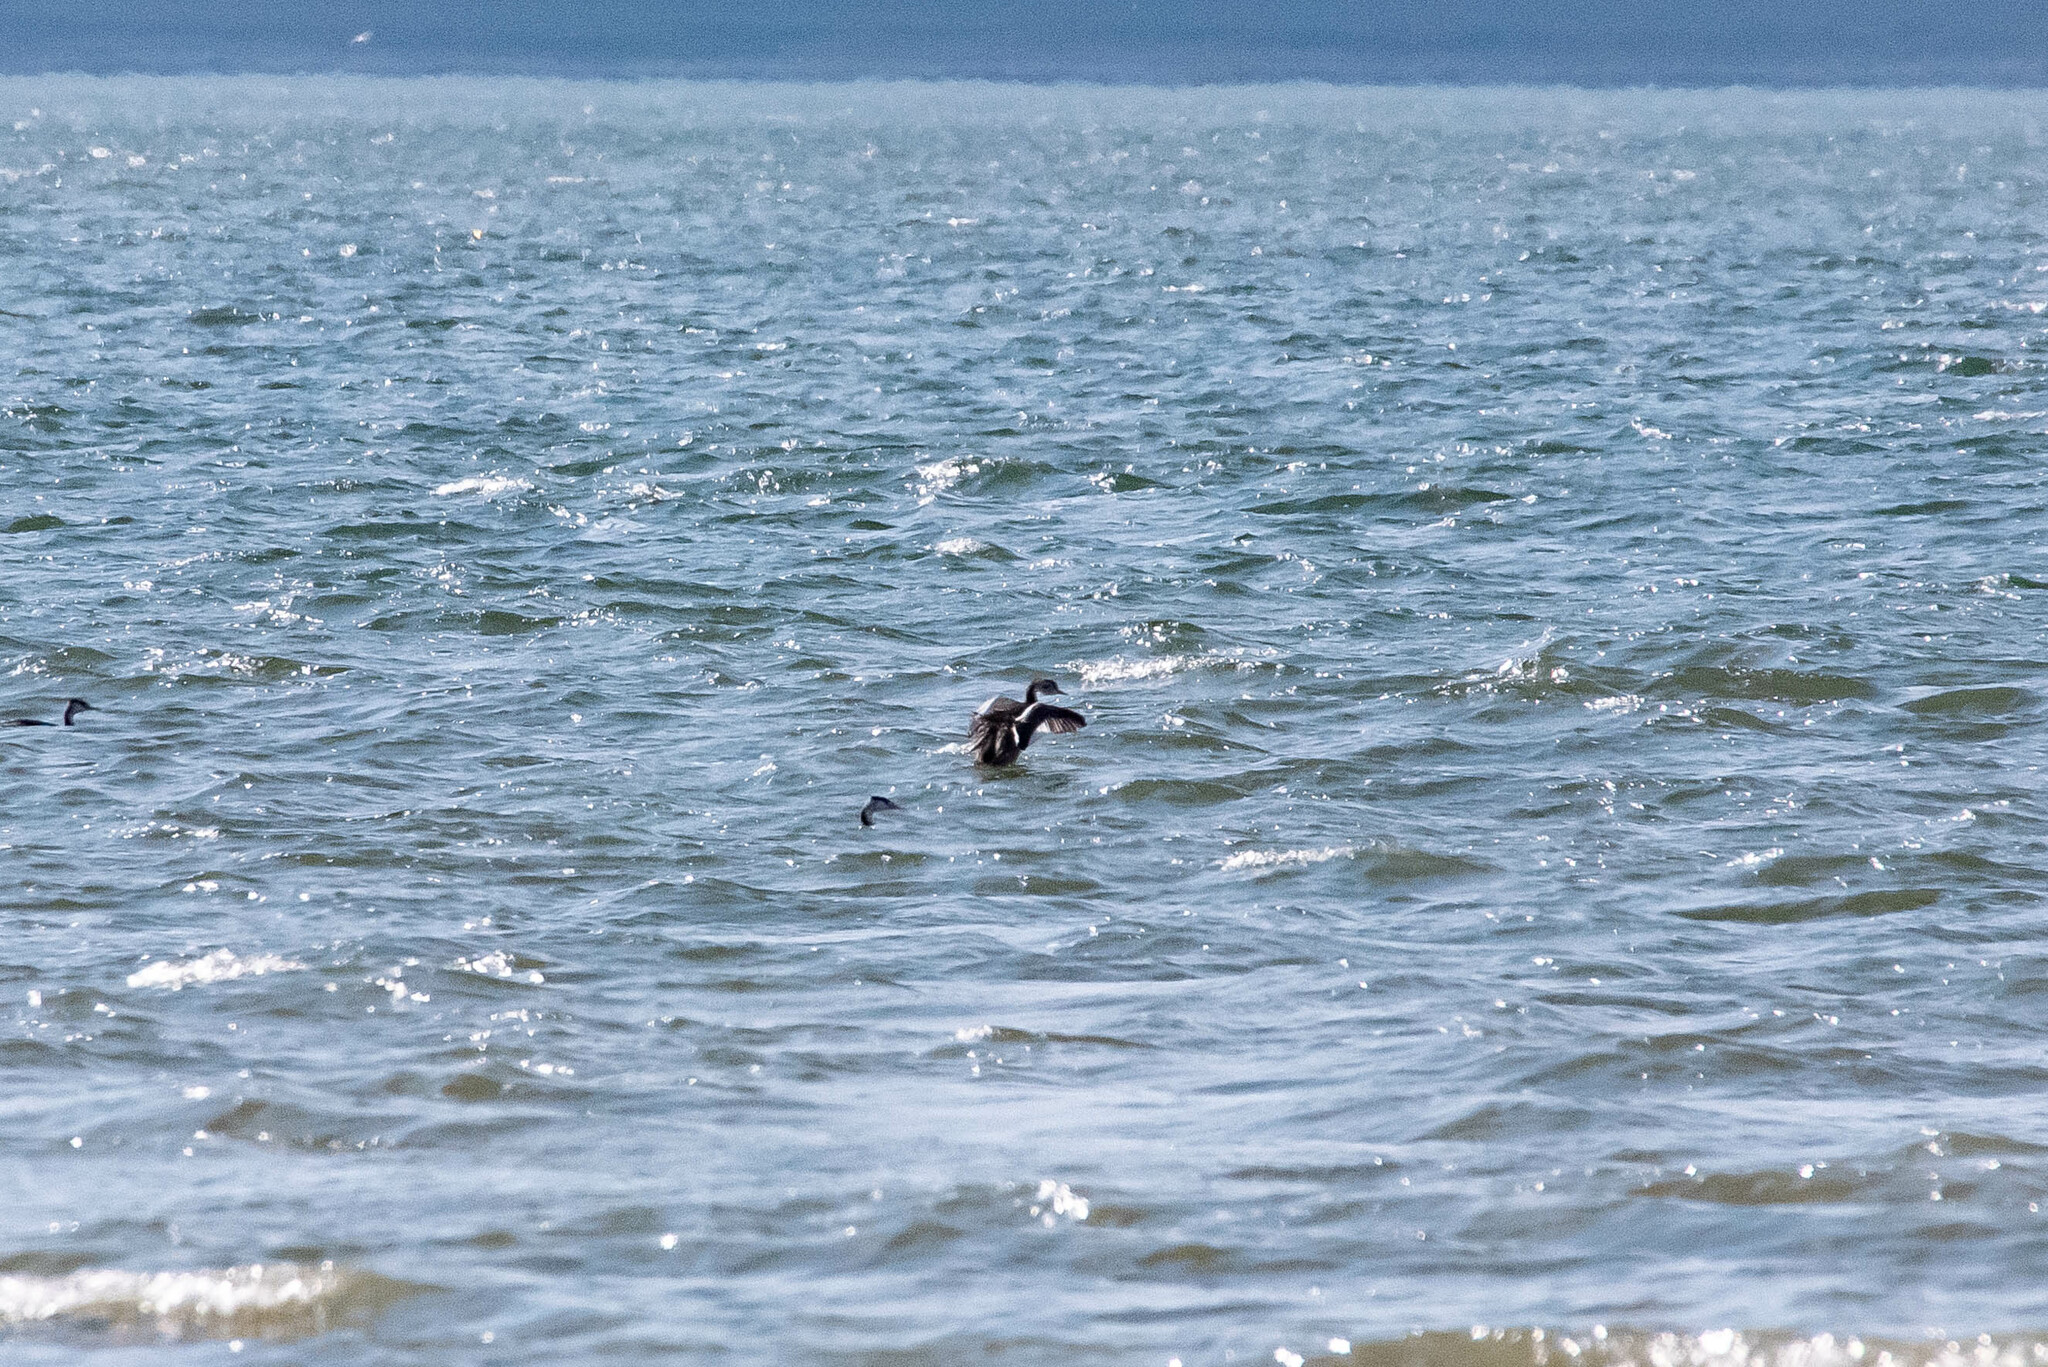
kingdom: Animalia
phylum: Chordata
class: Aves
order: Podicipediformes
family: Podicipedidae
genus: Podiceps
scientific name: Podiceps cristatus
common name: Great crested grebe
